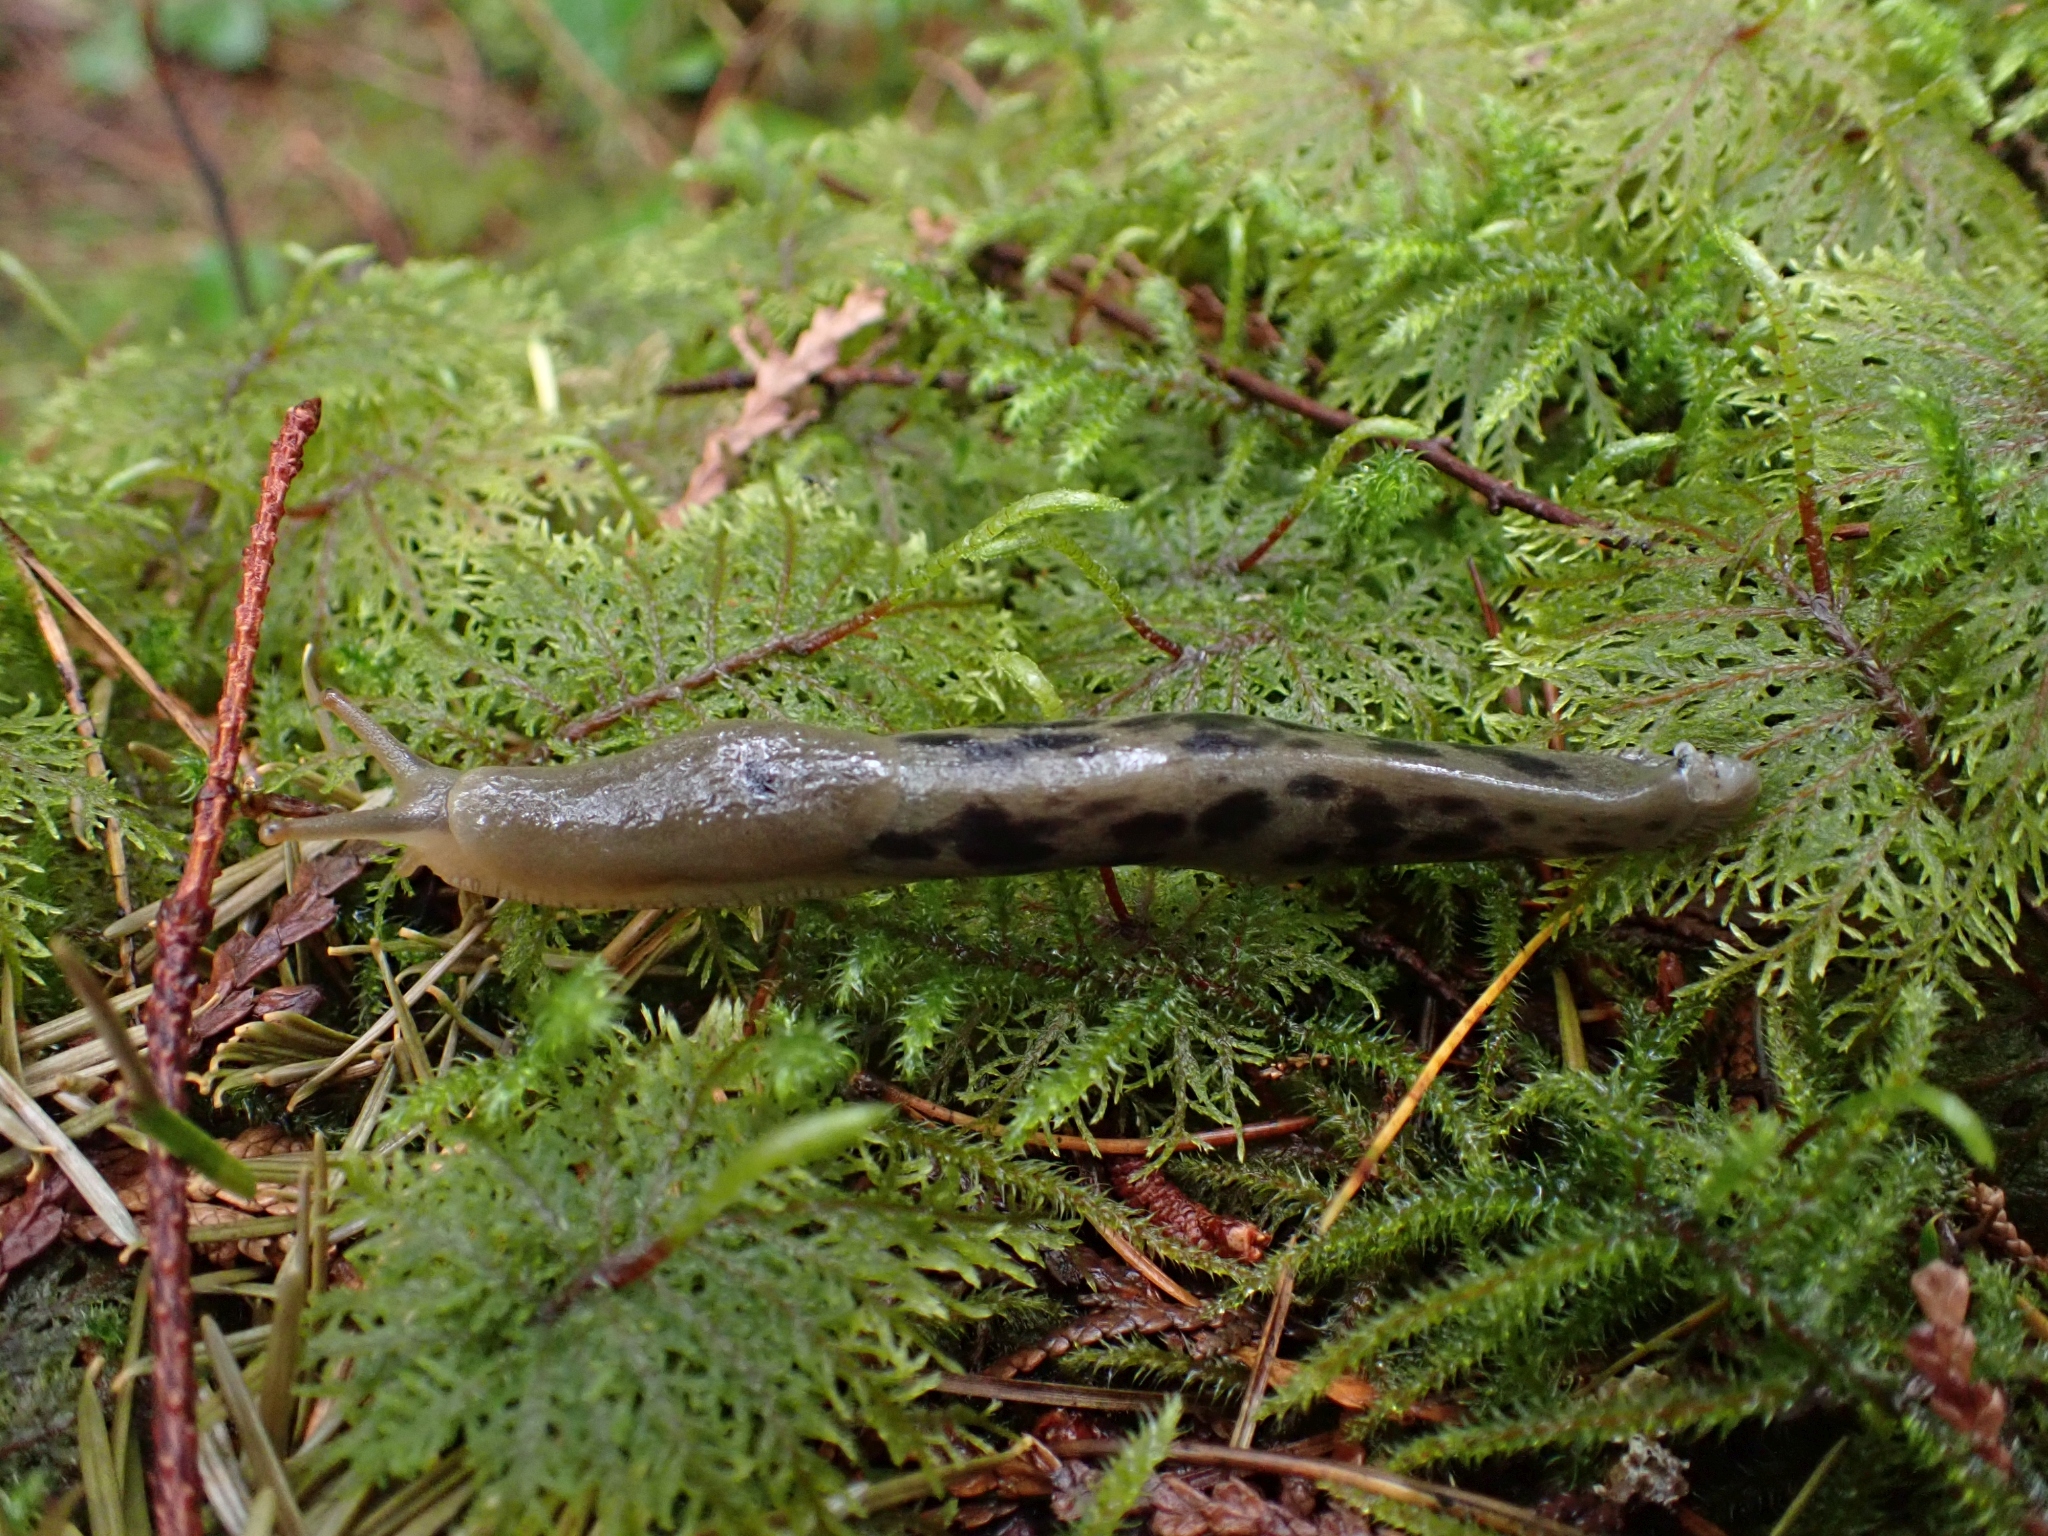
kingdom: Animalia
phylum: Mollusca
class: Gastropoda
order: Stylommatophora
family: Ariolimacidae
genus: Ariolimax
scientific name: Ariolimax columbianus
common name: Pacific banana slug
